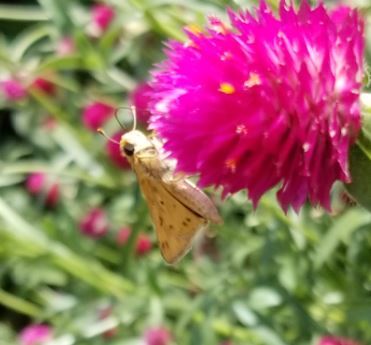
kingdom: Animalia
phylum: Arthropoda
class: Insecta
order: Lepidoptera
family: Hesperiidae
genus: Hylephila
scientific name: Hylephila phyleus
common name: Fiery skipper
